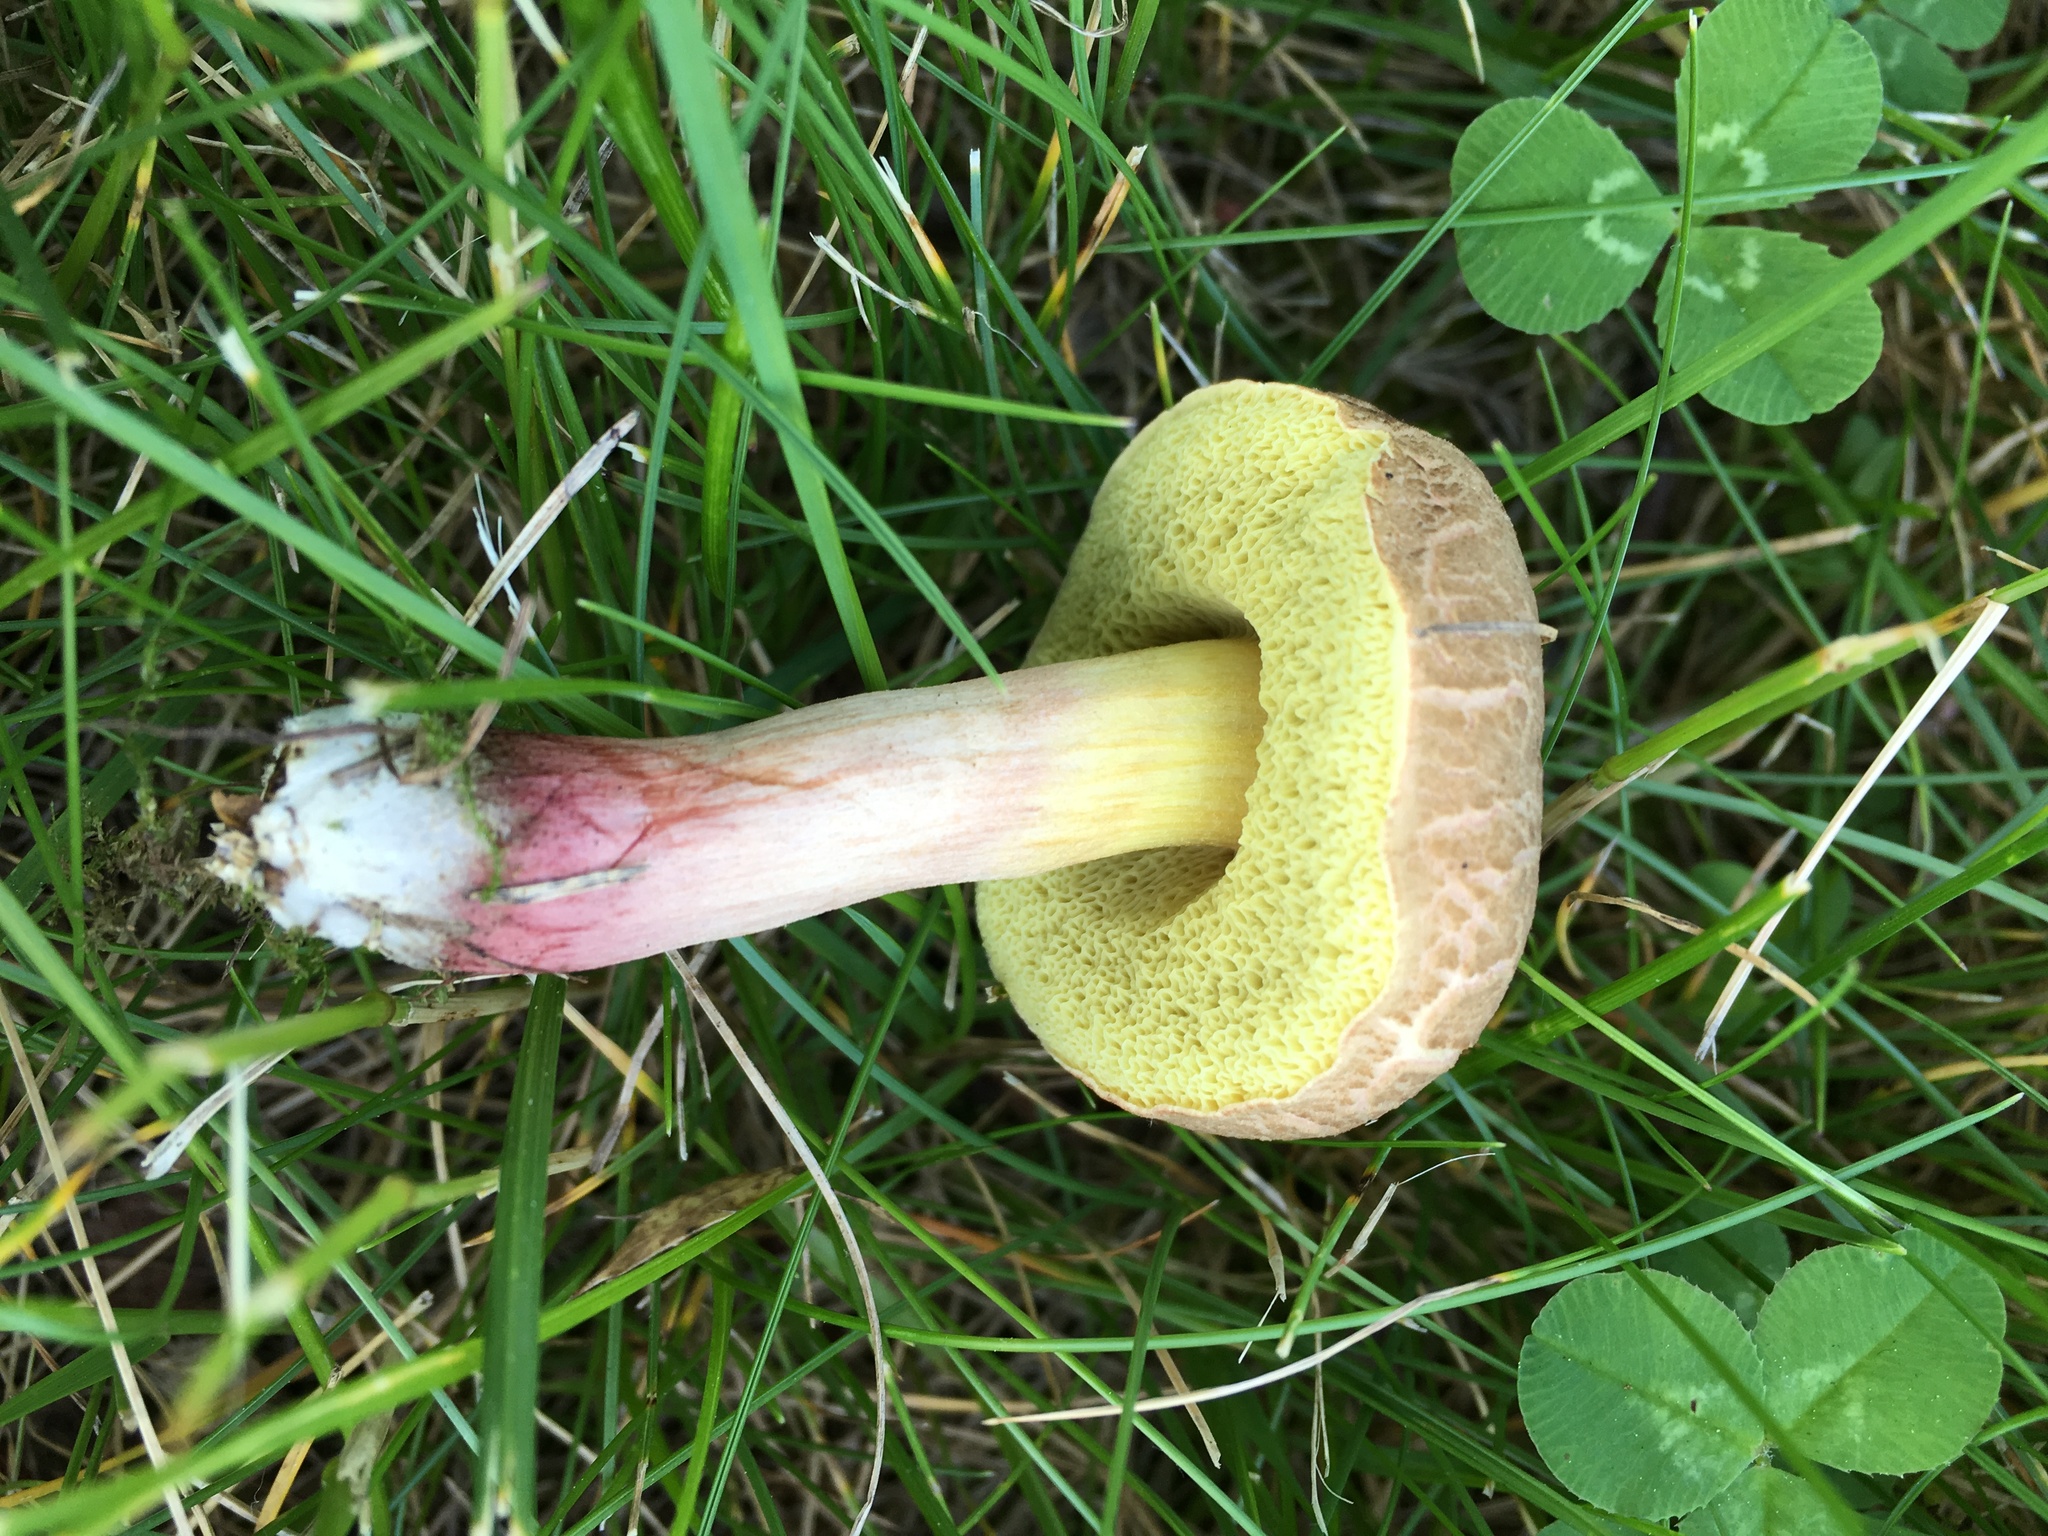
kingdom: Fungi
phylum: Basidiomycota
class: Agaricomycetes
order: Boletales
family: Boletaceae
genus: Xerocomellus
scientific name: Xerocomellus chrysenteron
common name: Red-cracking bolete
